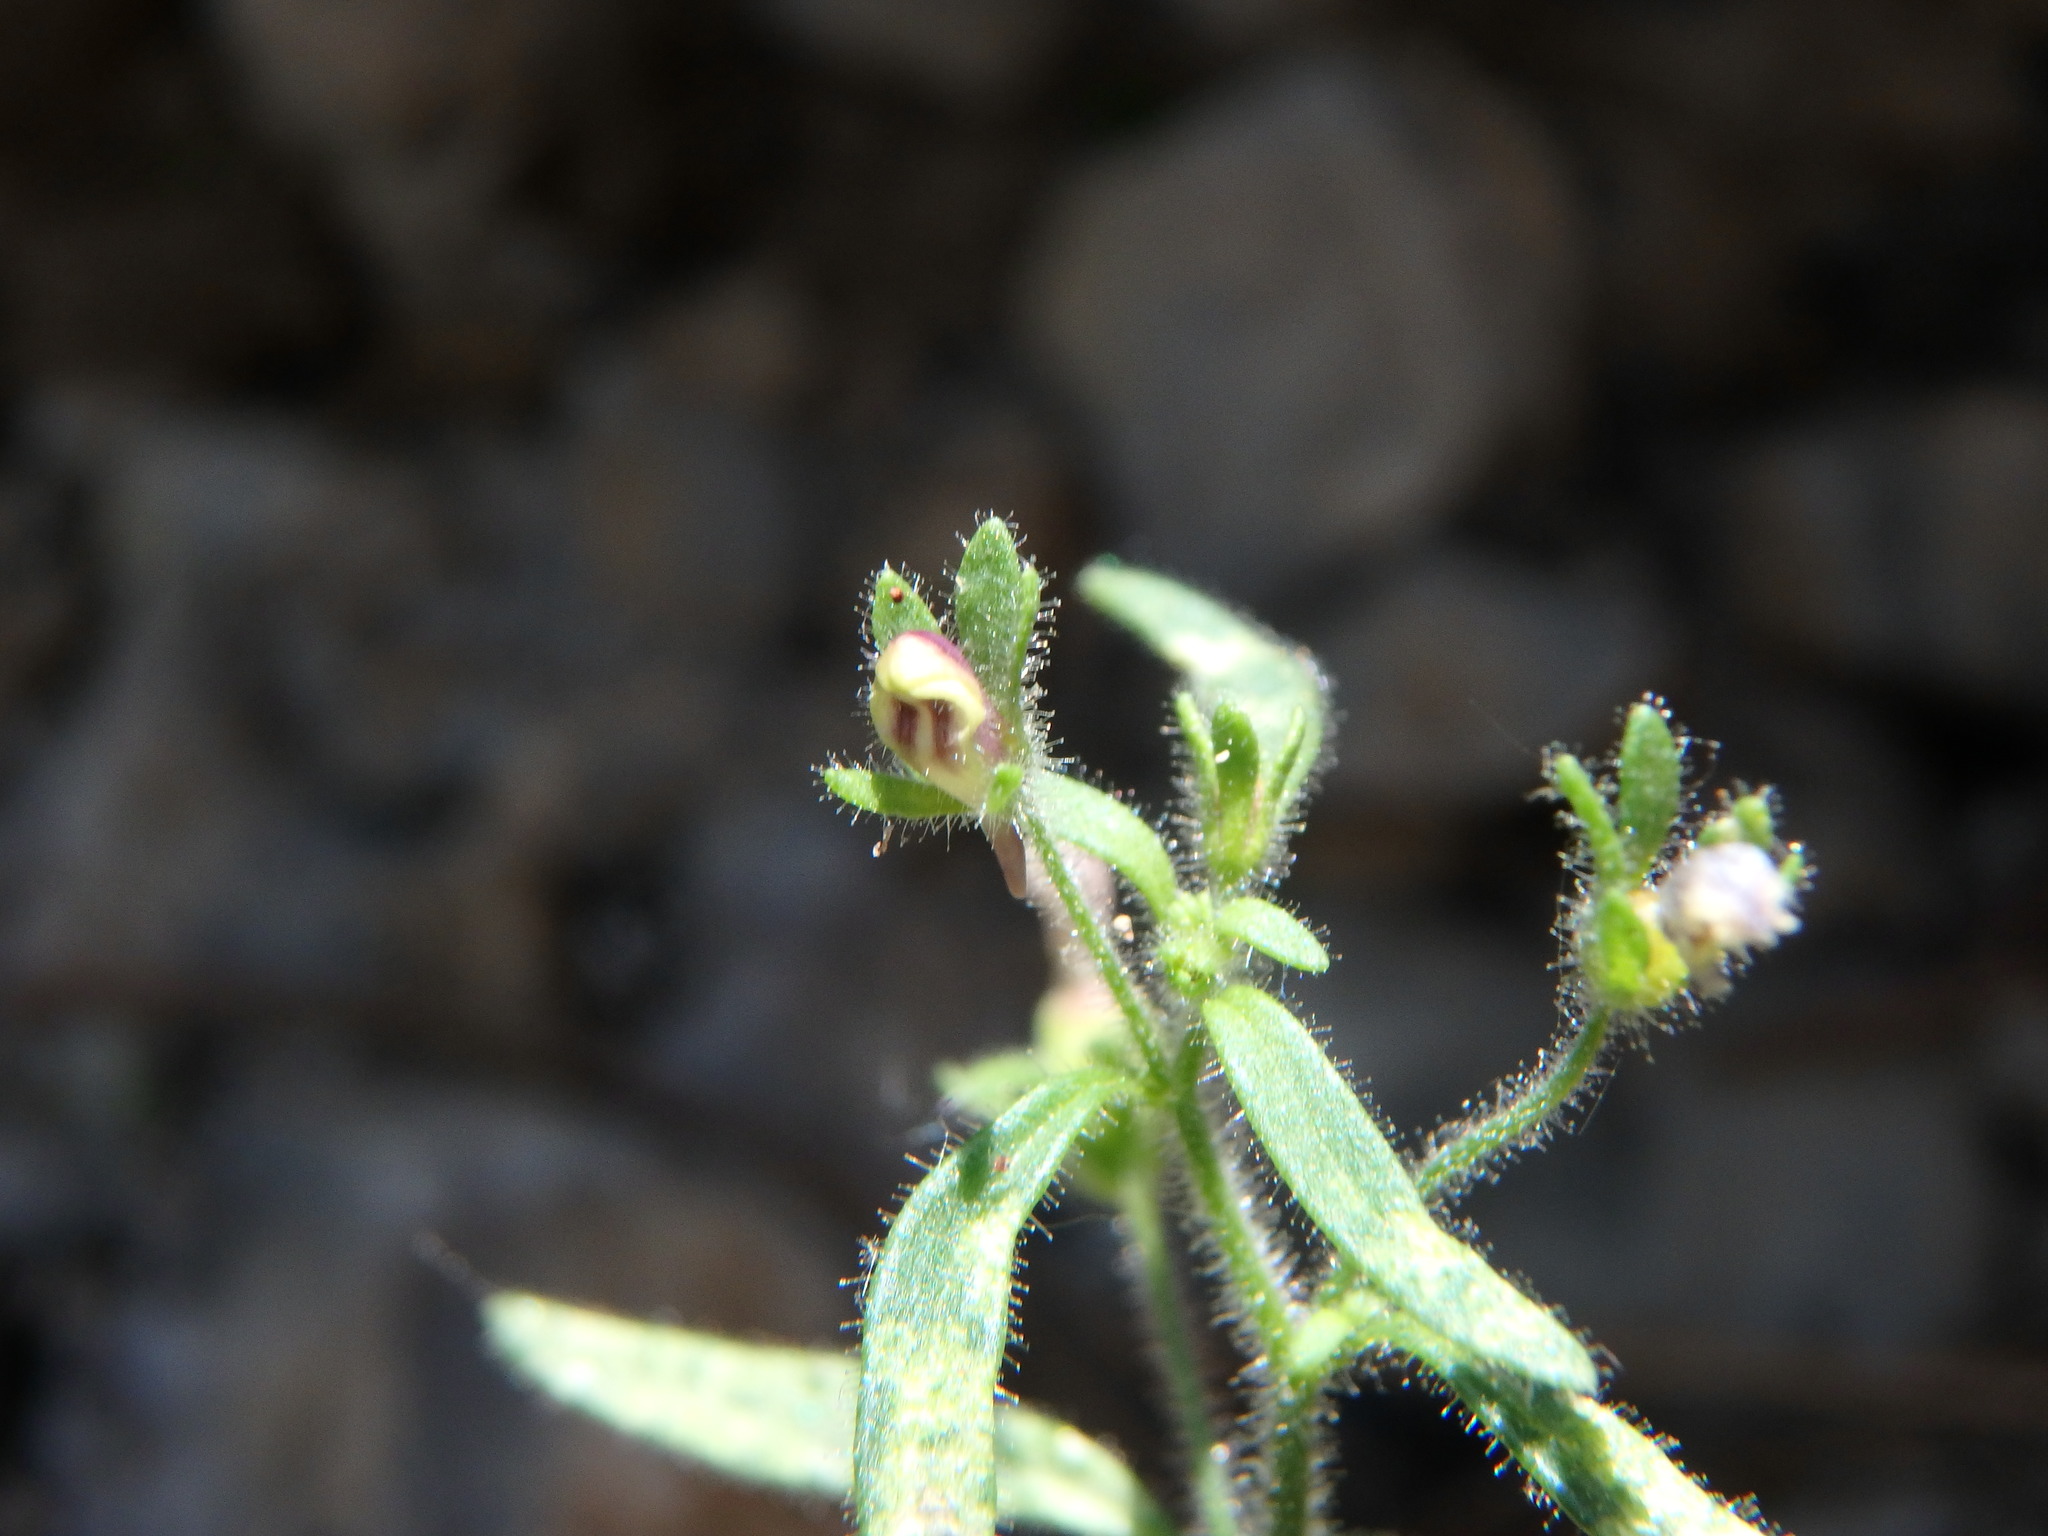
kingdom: Plantae
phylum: Tracheophyta
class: Magnoliopsida
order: Lamiales
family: Plantaginaceae
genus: Chaenorhinum
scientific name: Chaenorhinum minus
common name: Dwarf snapdragon
